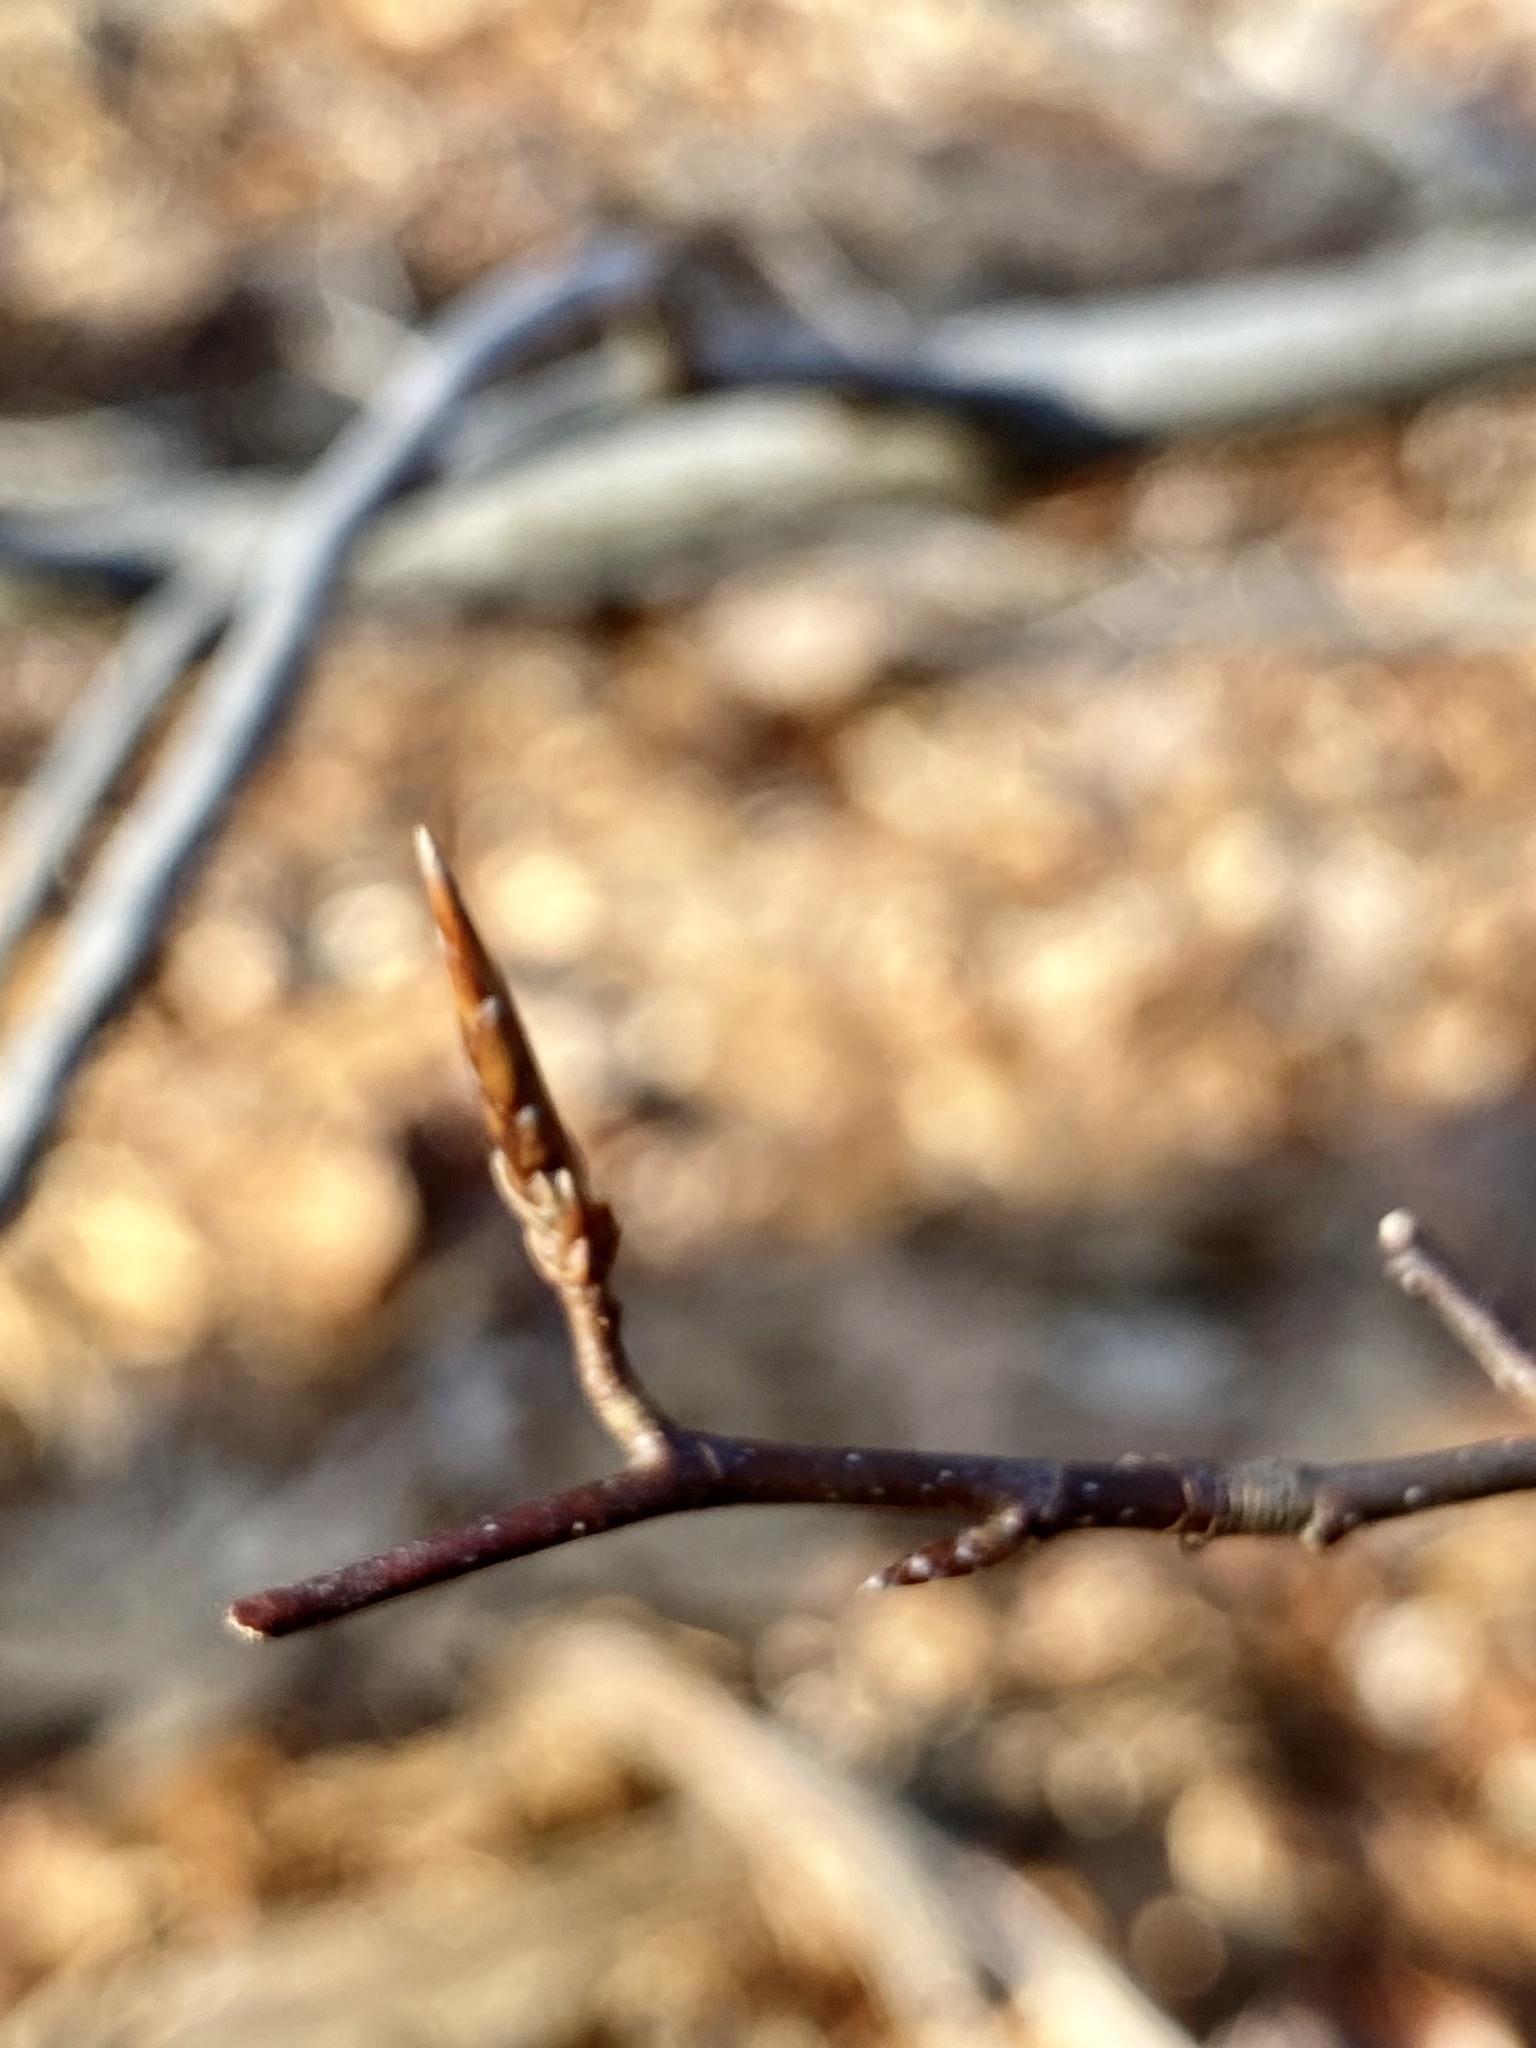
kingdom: Plantae
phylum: Tracheophyta
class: Magnoliopsida
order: Fagales
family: Fagaceae
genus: Fagus
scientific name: Fagus grandifolia
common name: American beech
